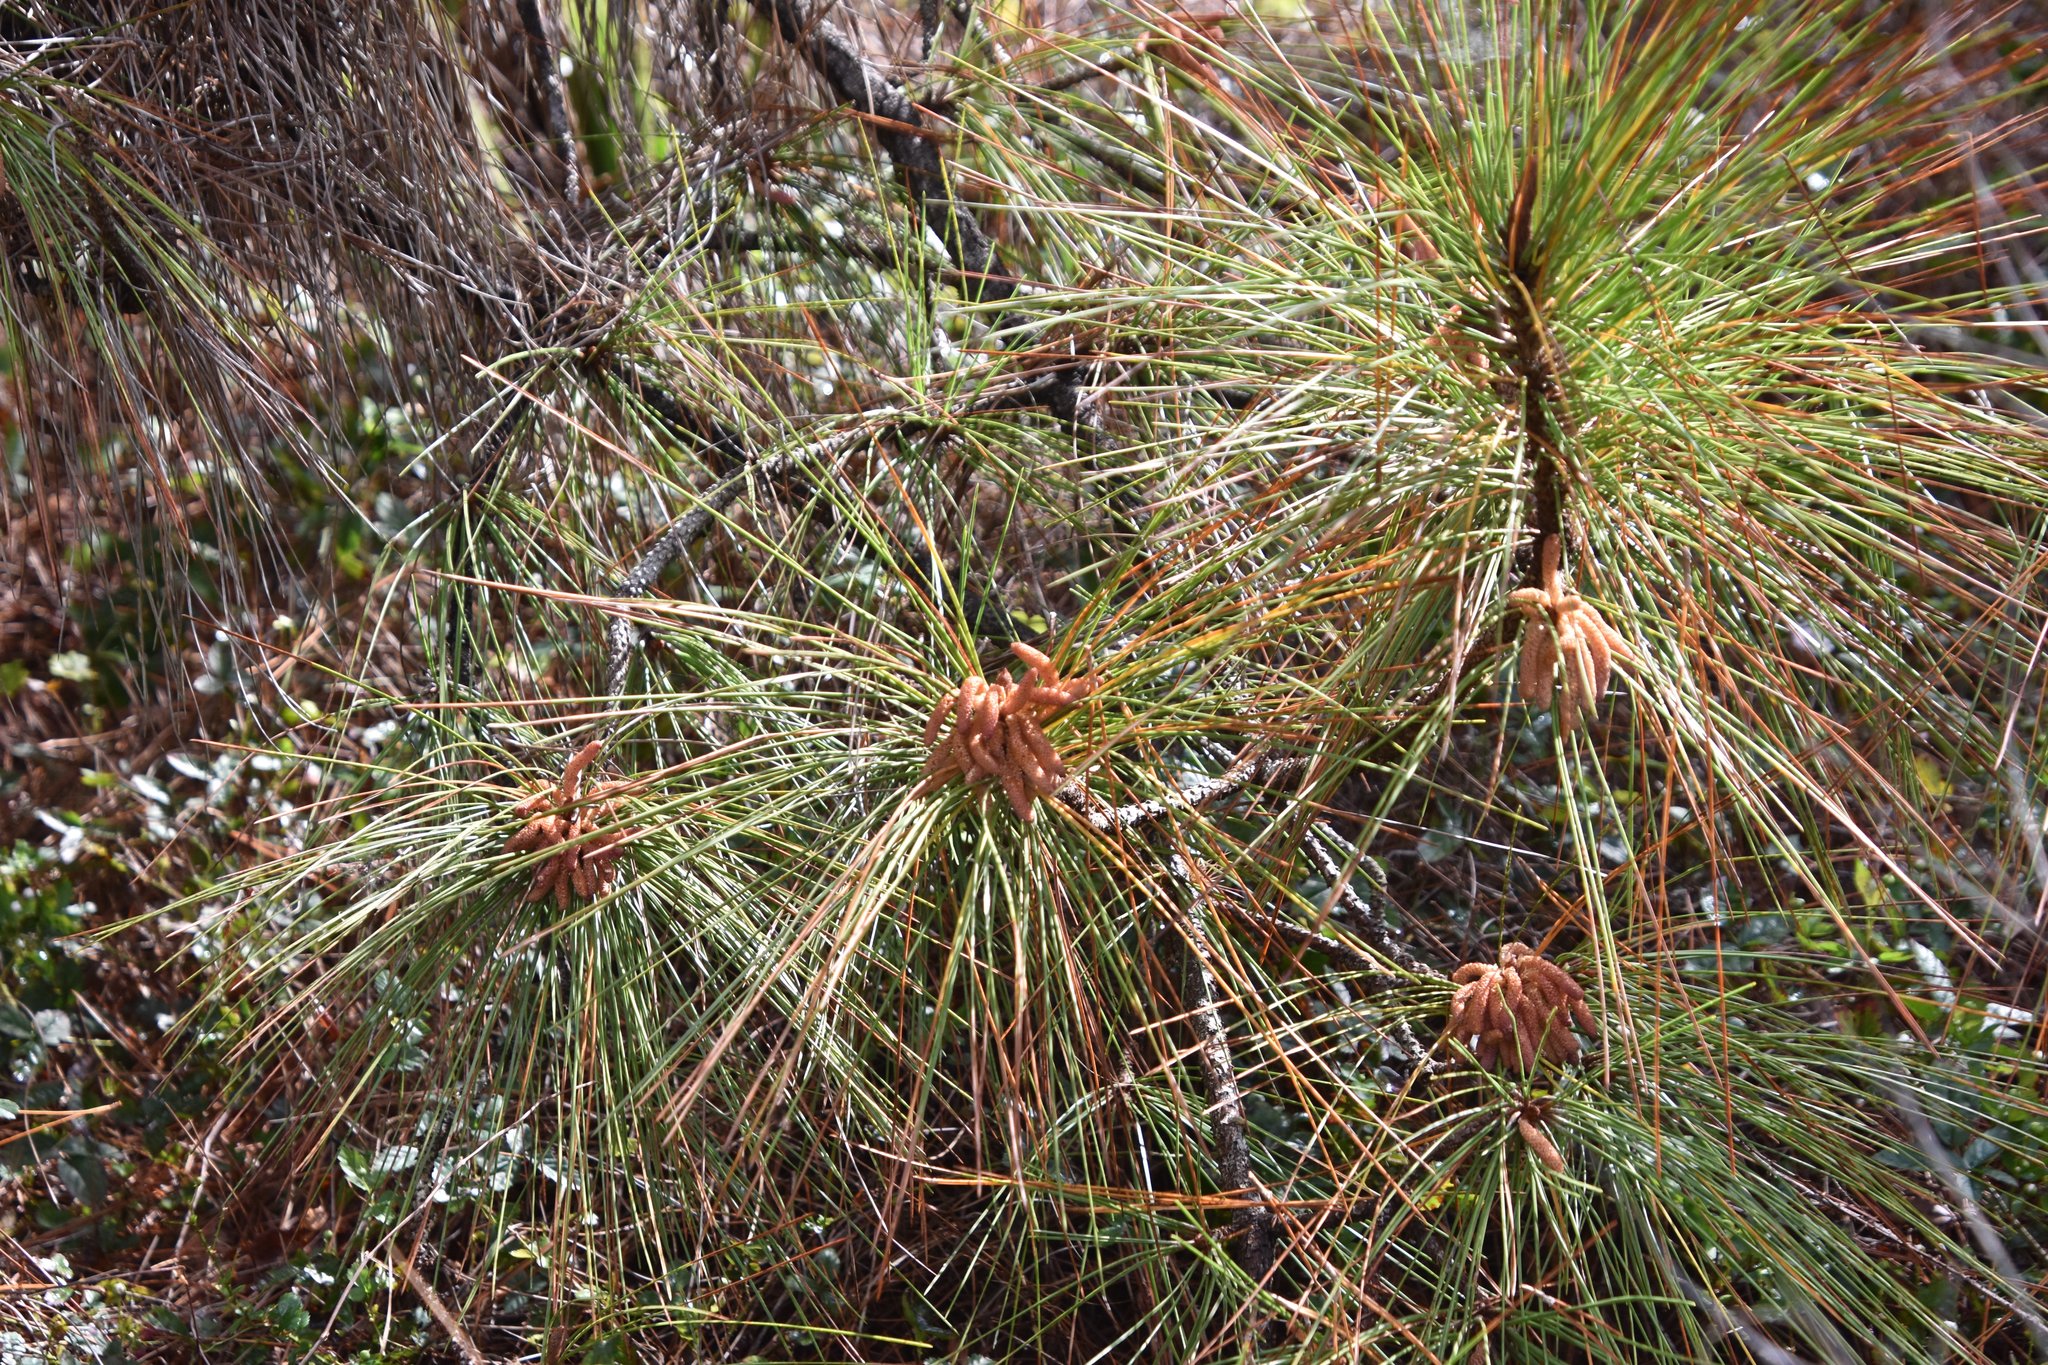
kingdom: Plantae
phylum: Tracheophyta
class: Pinopsida
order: Pinales
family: Pinaceae
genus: Pinus
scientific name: Pinus elliottii
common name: Slash pine
